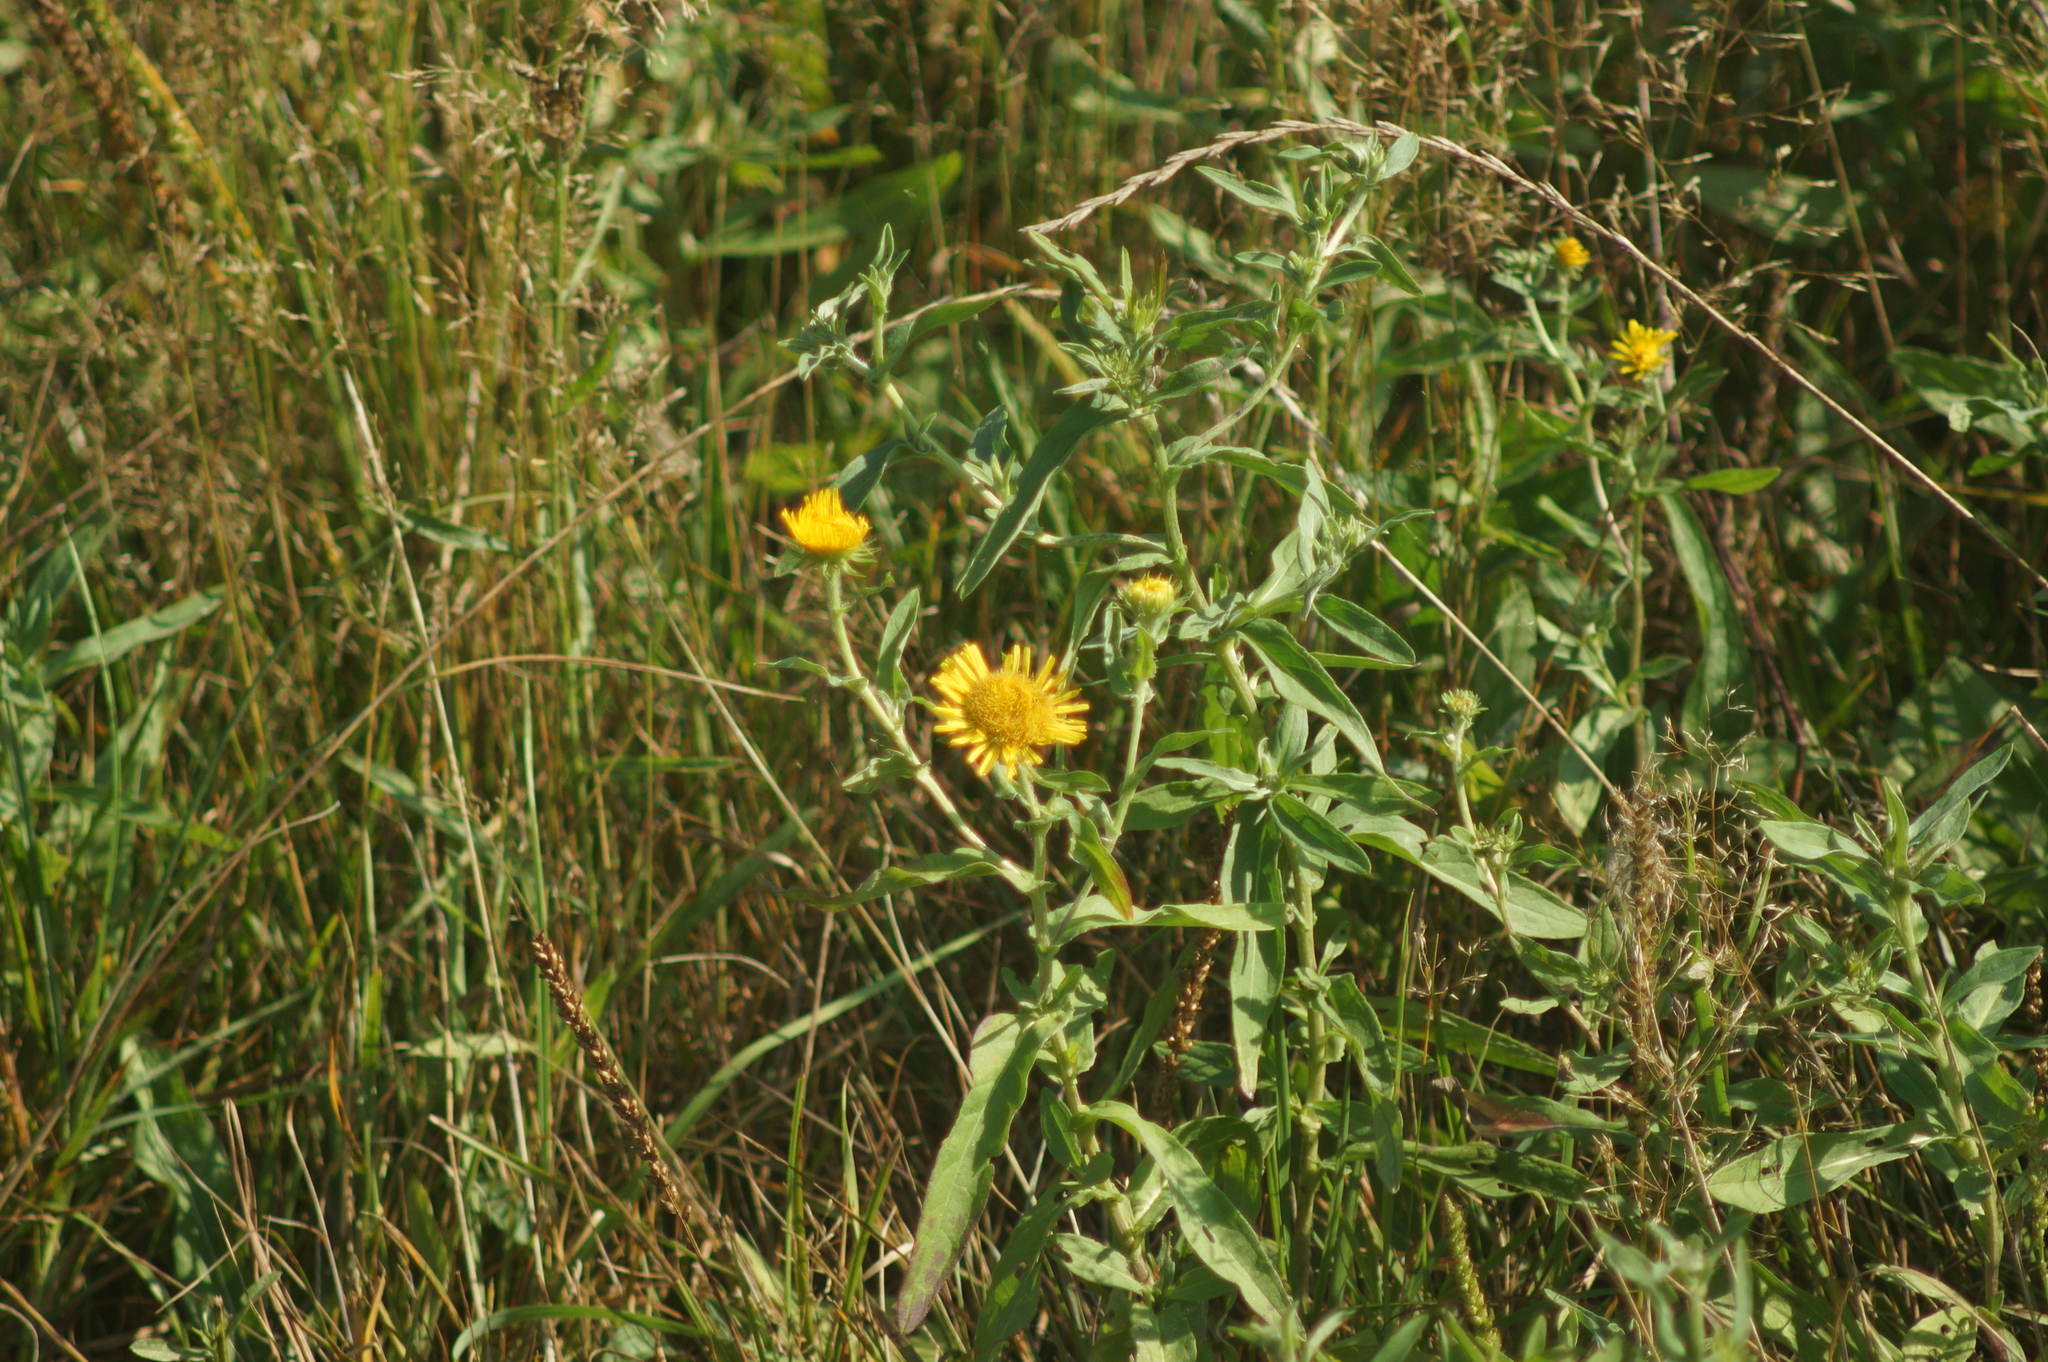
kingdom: Plantae
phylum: Tracheophyta
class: Magnoliopsida
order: Asterales
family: Asteraceae
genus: Pentanema
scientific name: Pentanema britannicum
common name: British elecampane
